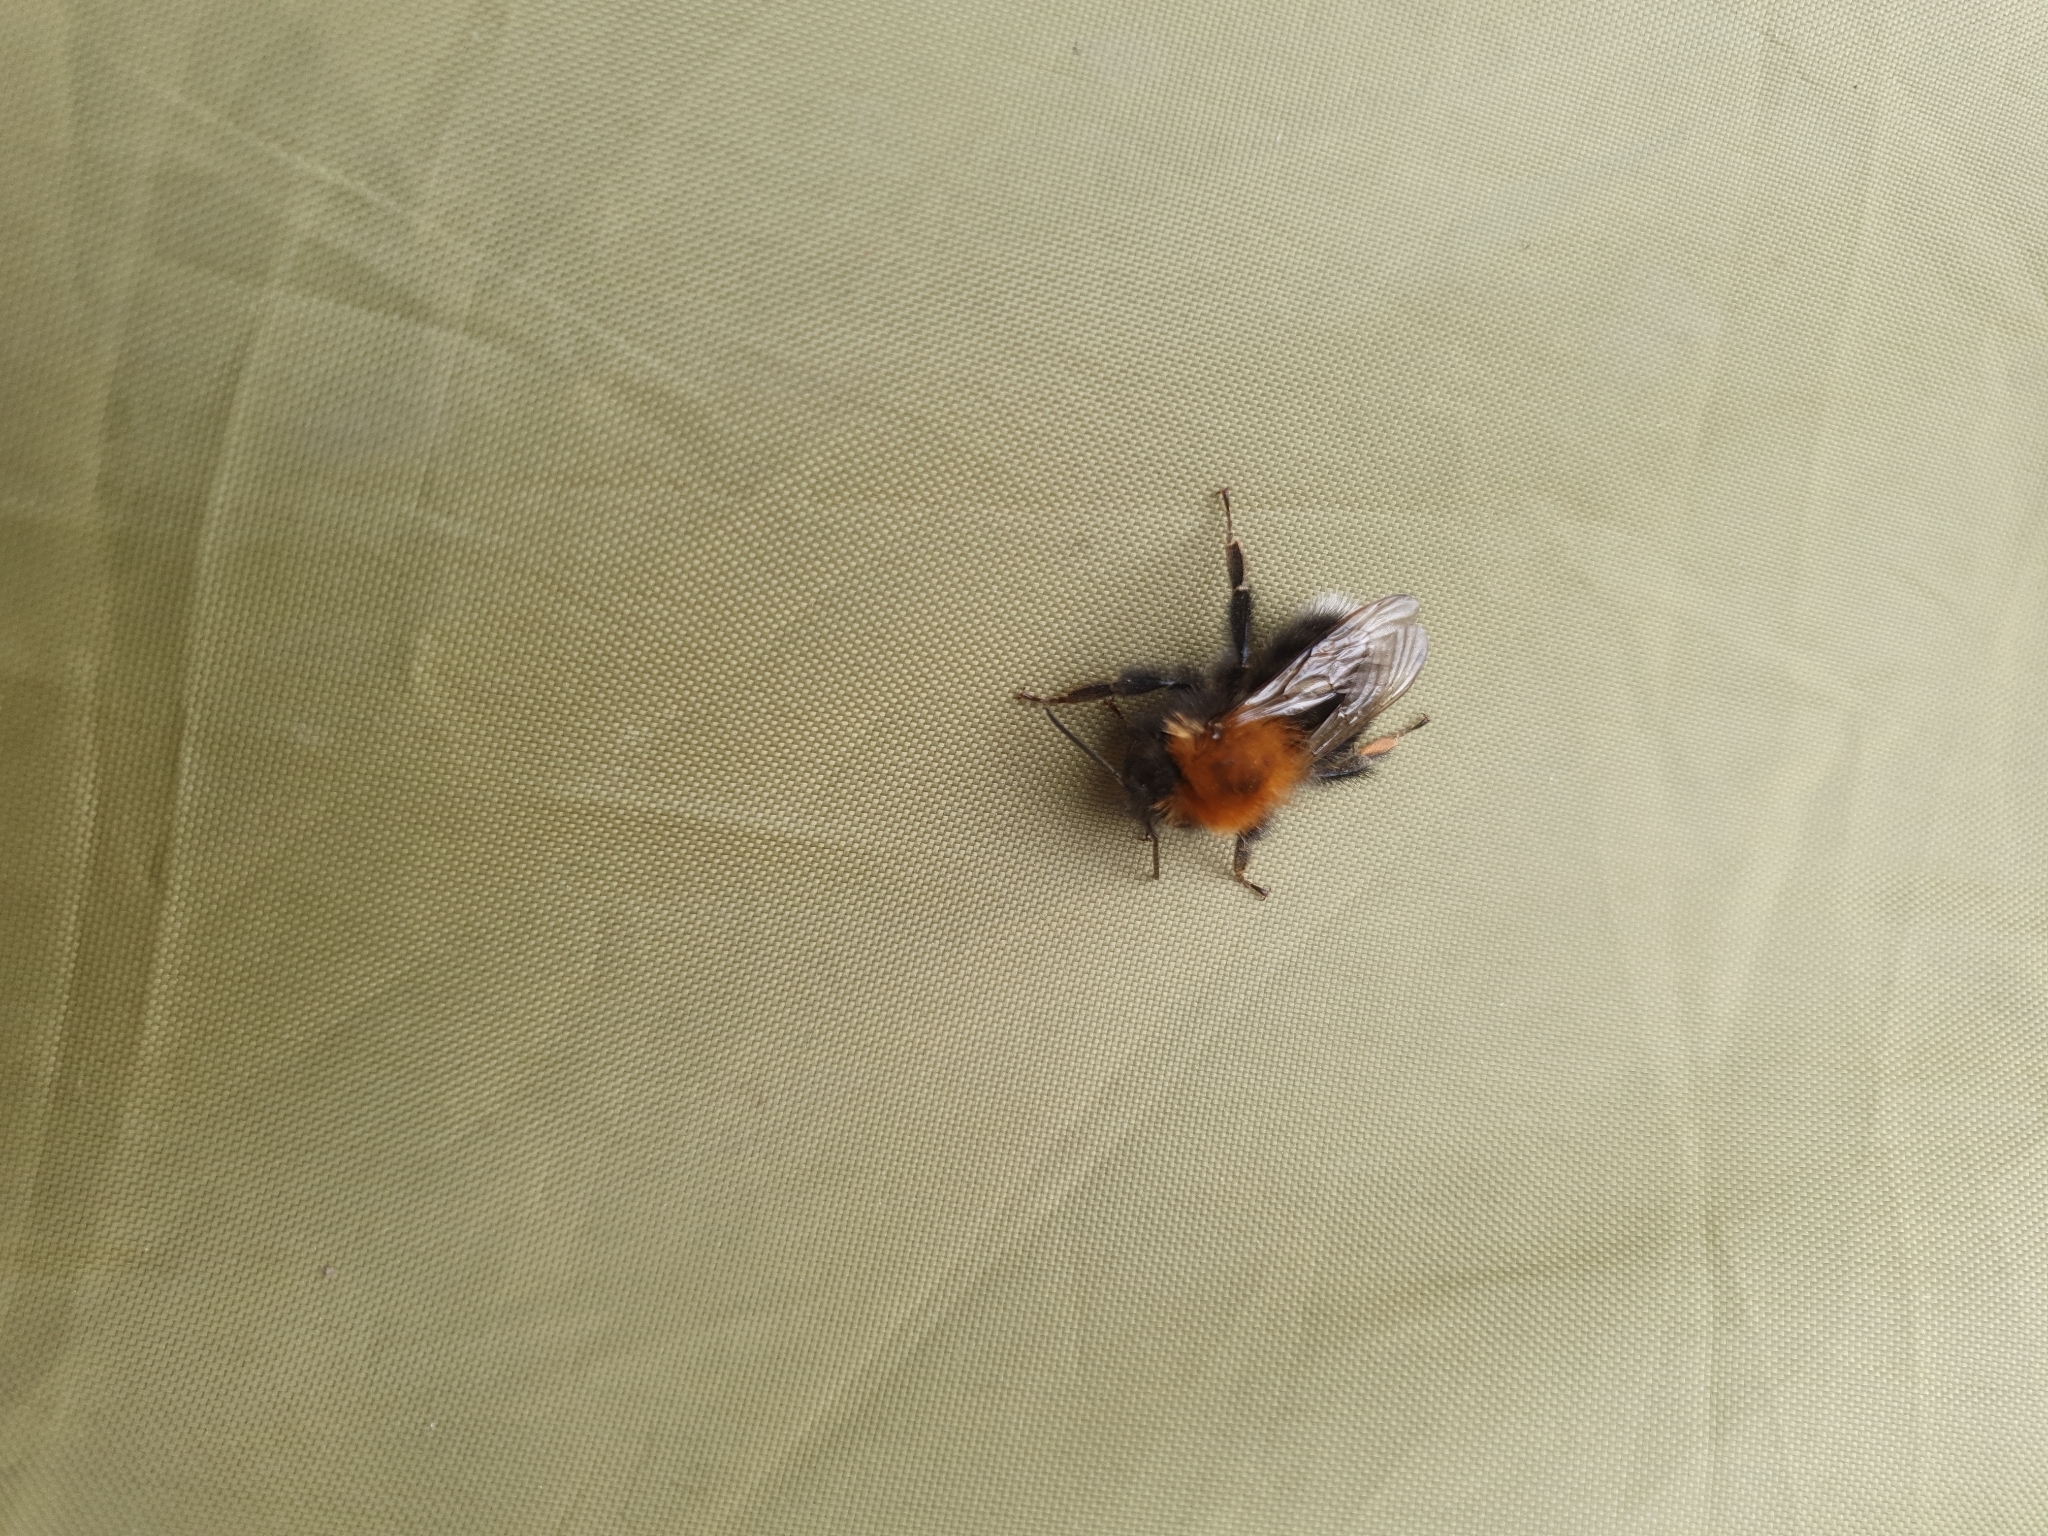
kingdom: Animalia
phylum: Arthropoda
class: Insecta
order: Hymenoptera
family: Apidae
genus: Bombus
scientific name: Bombus hypnorum
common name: New garden bumblebee
